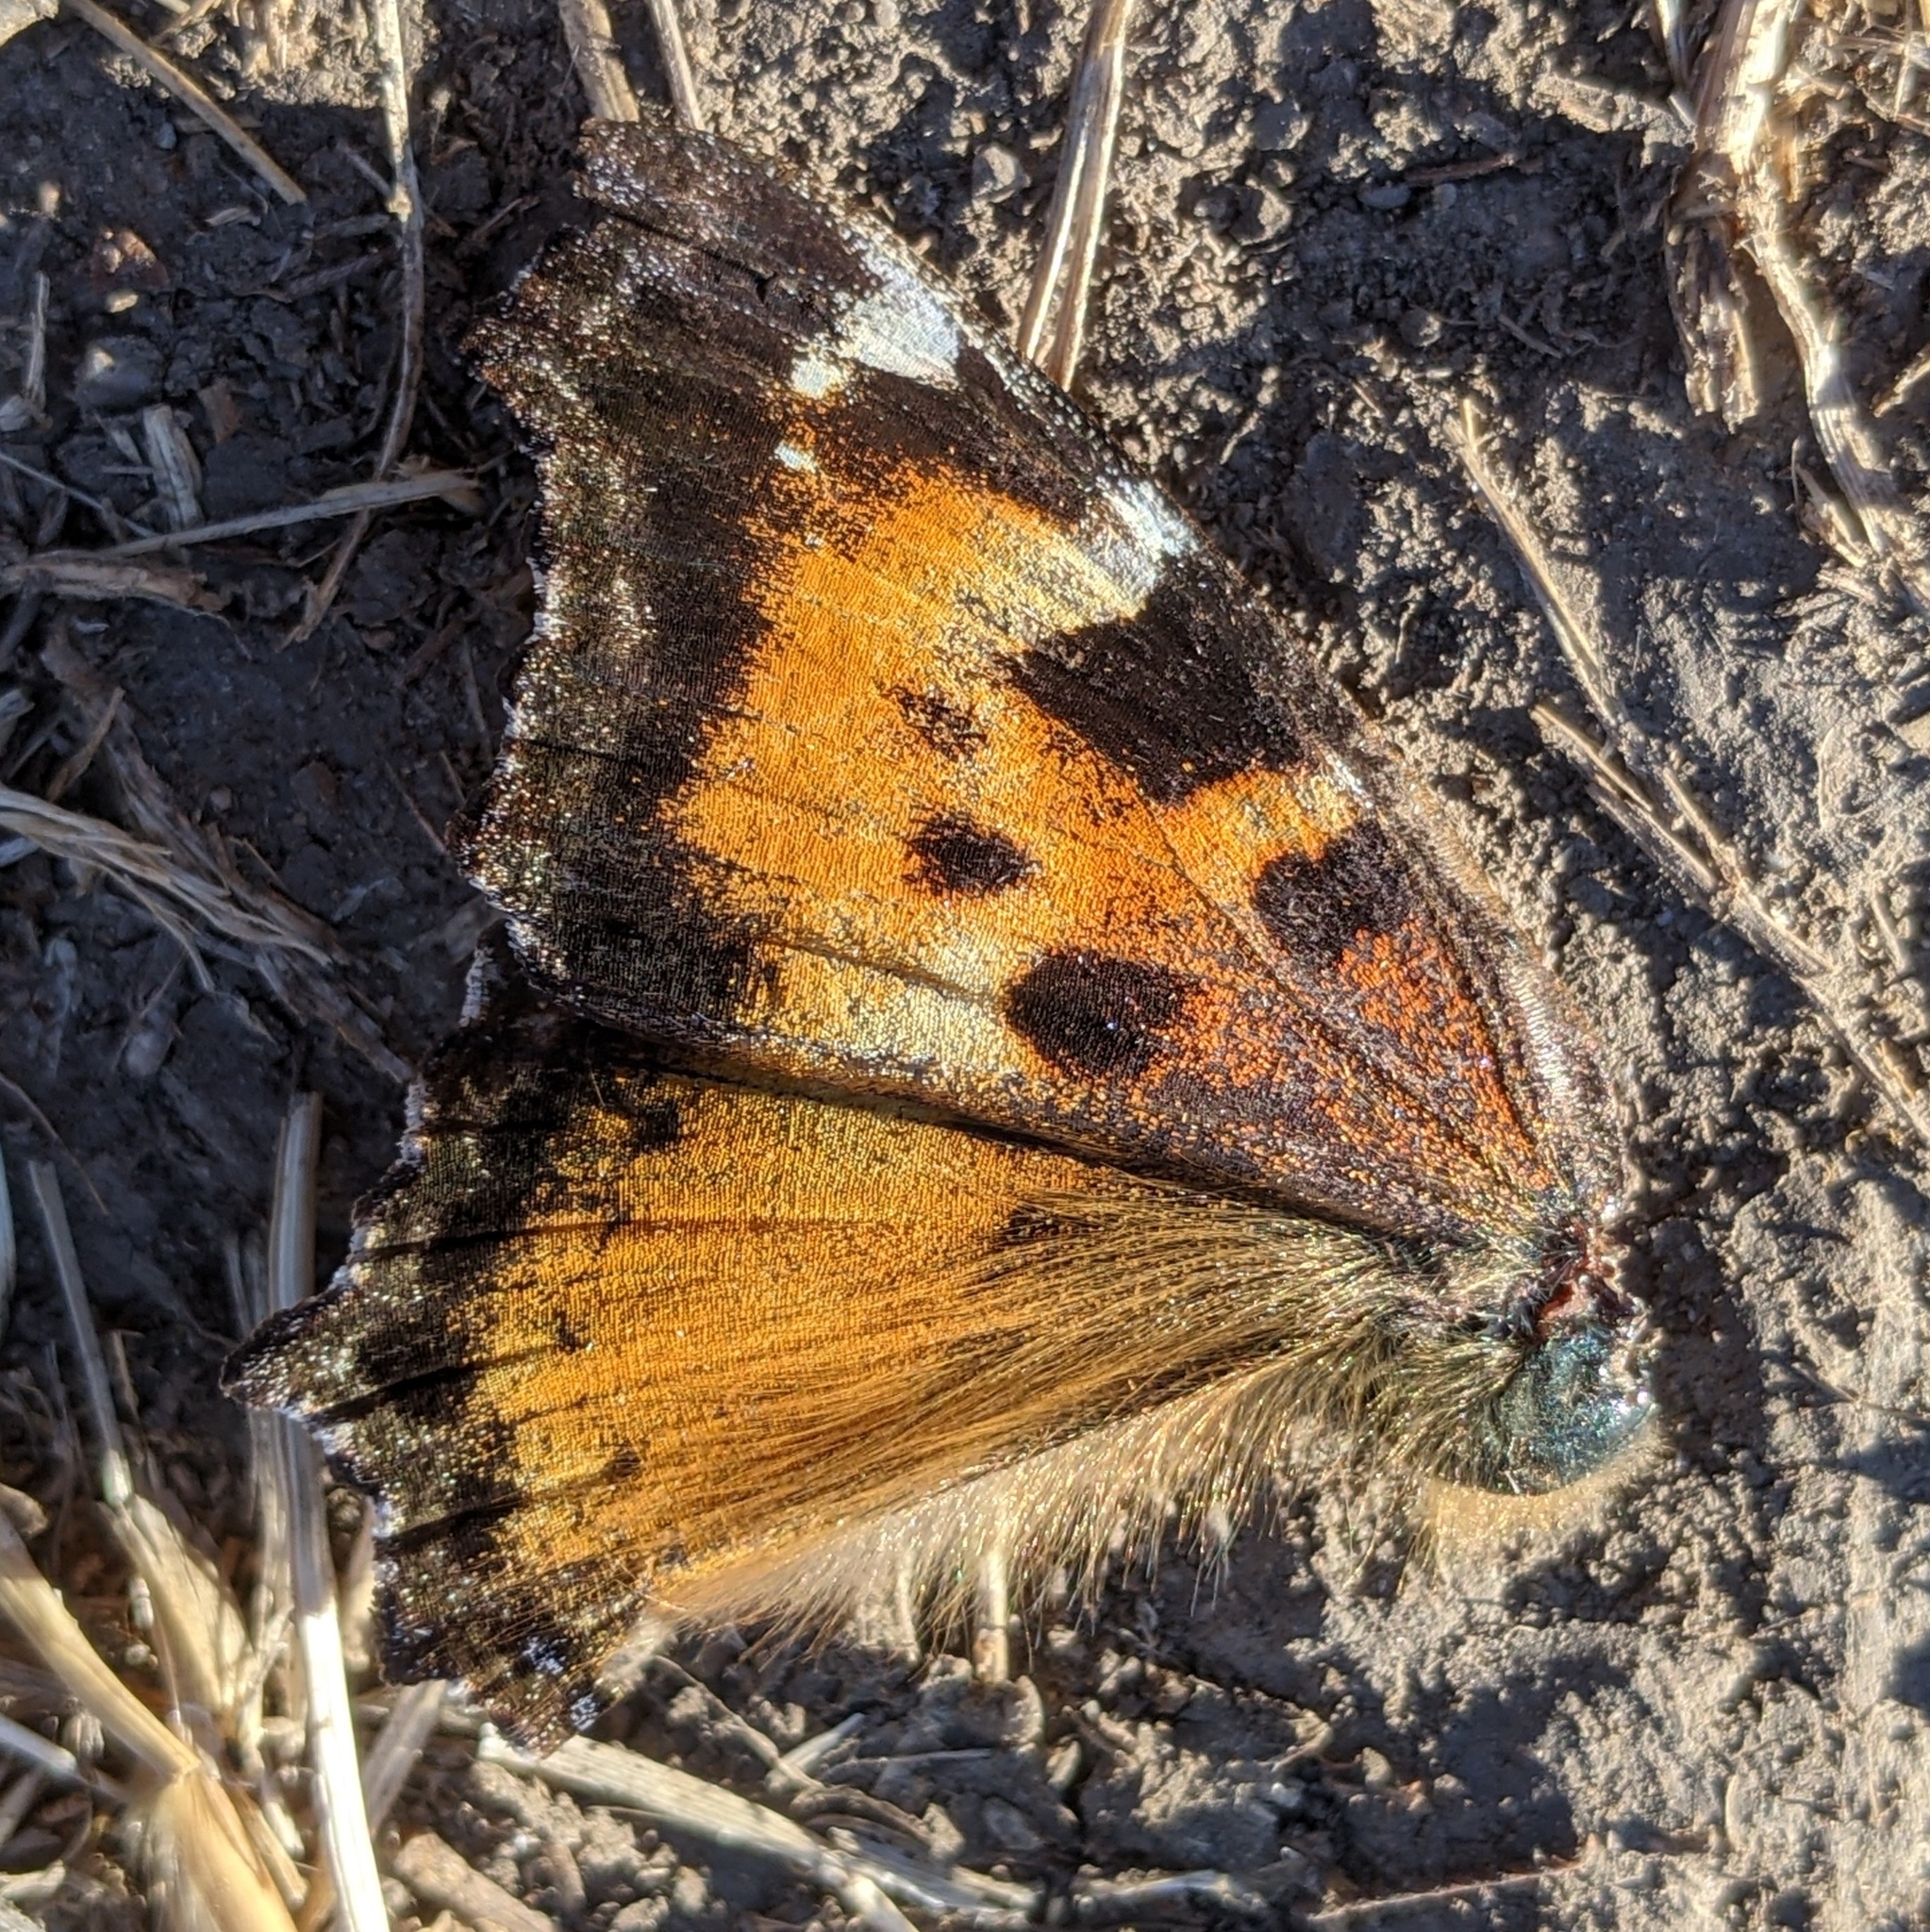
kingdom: Animalia
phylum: Arthropoda
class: Insecta
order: Lepidoptera
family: Nymphalidae
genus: Nymphalis
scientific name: Nymphalis californica
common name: California tortoiseshell
